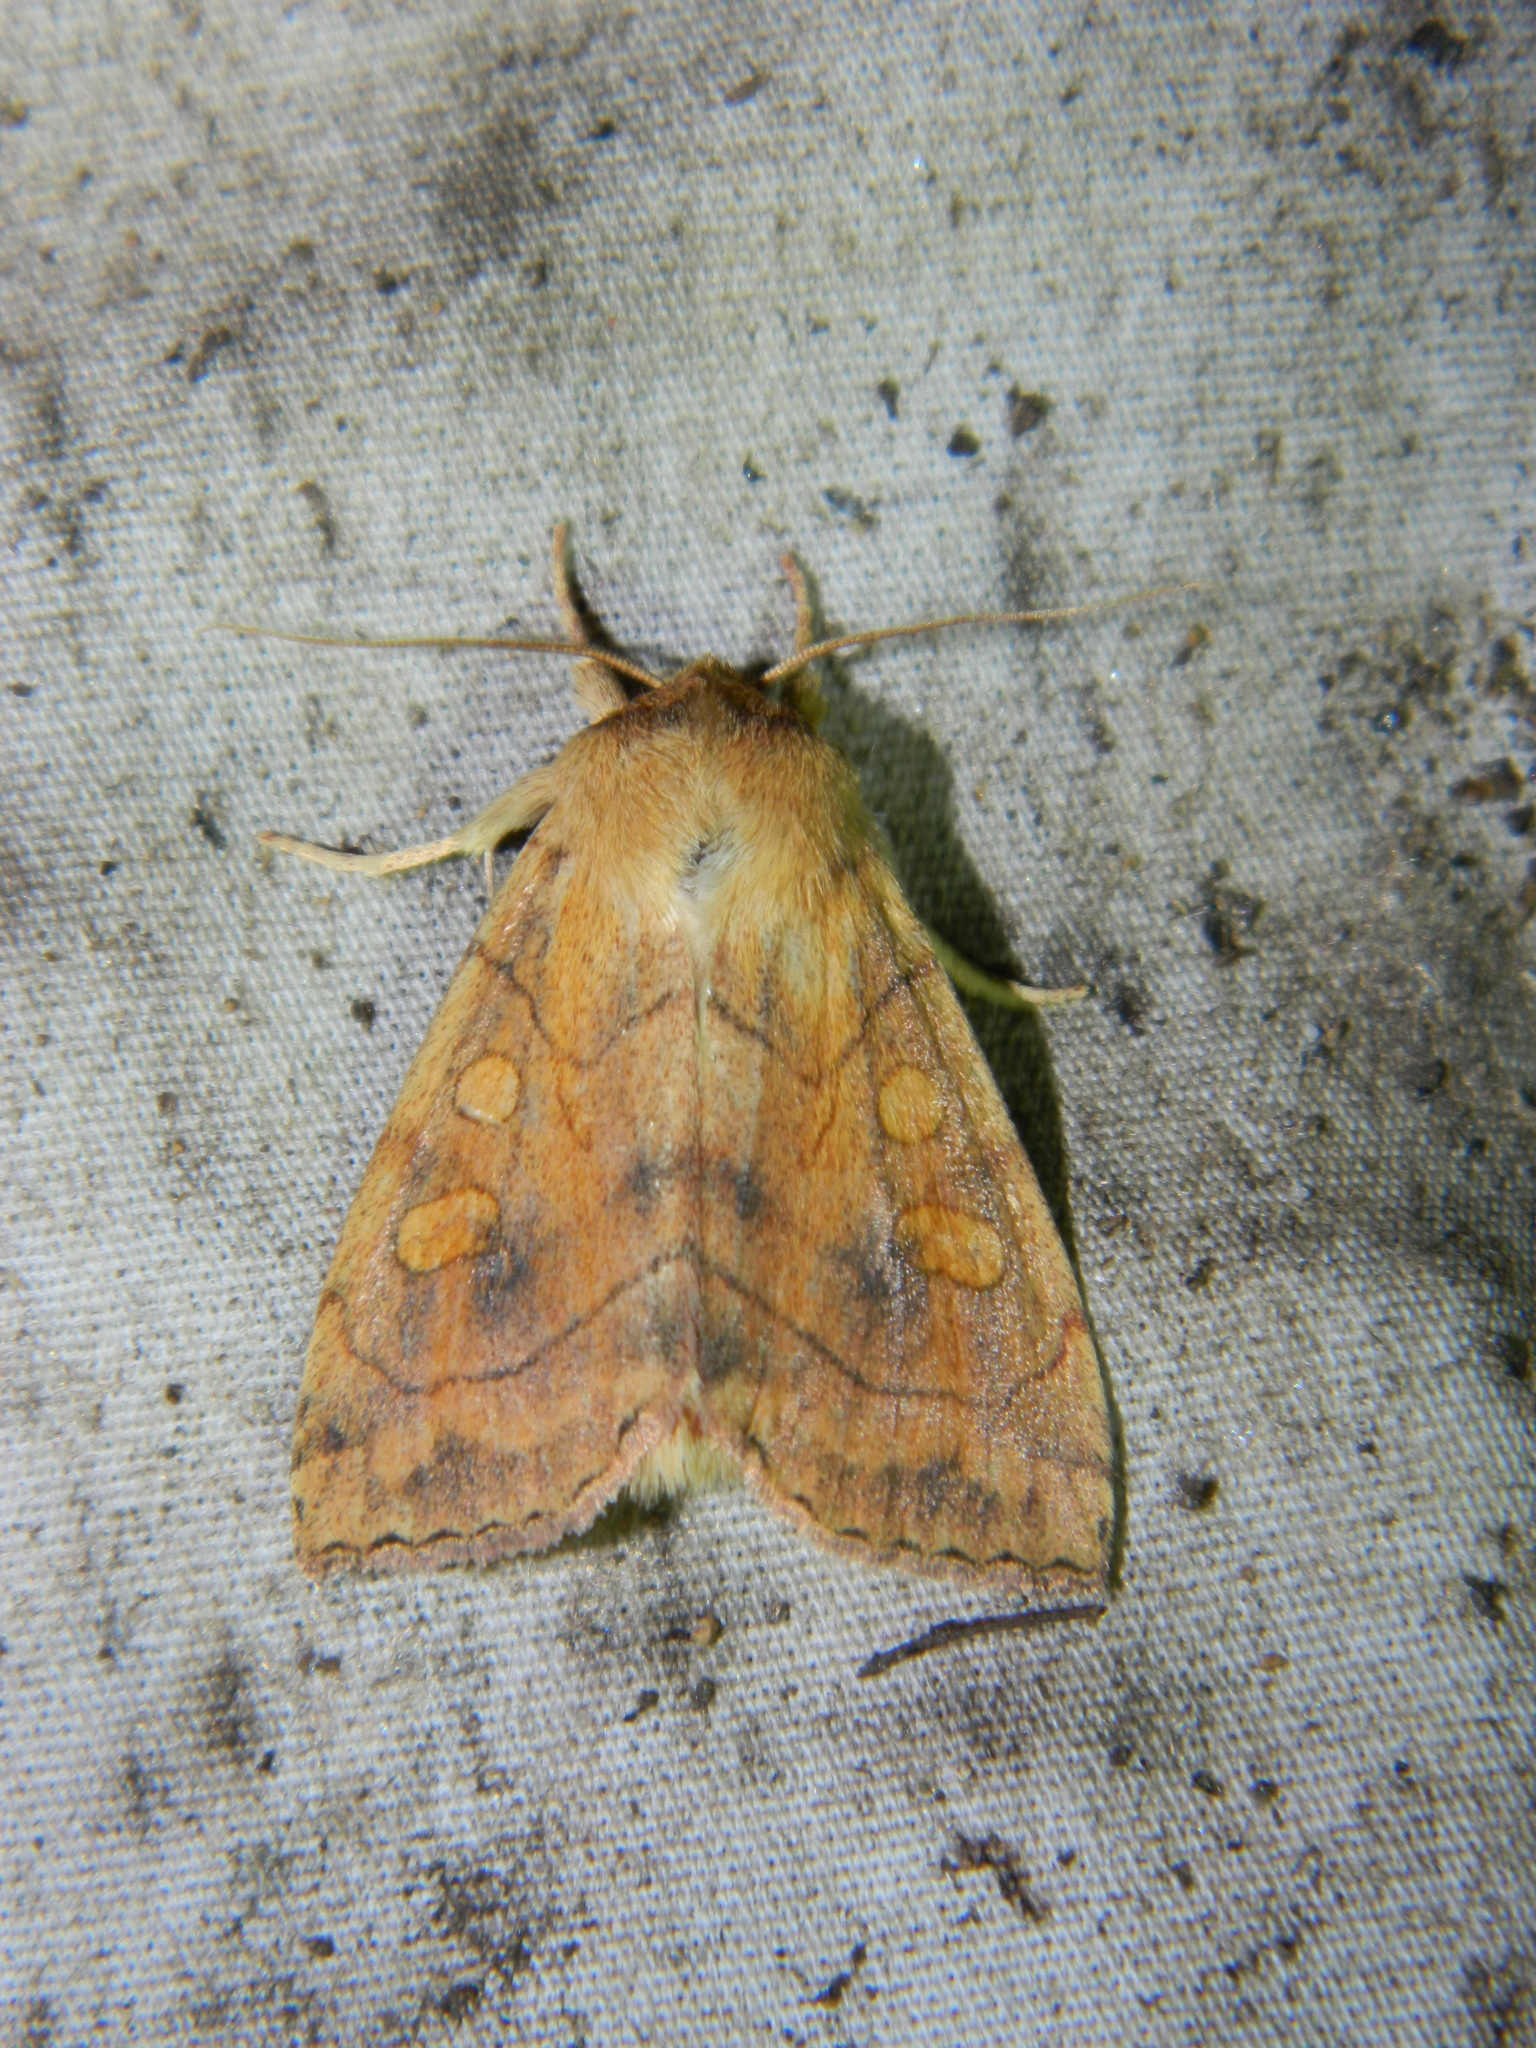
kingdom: Animalia
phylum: Arthropoda
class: Insecta
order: Lepidoptera
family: Noctuidae
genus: Enargia
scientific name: Enargia decolor
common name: Aspen twoleaf tier moth
